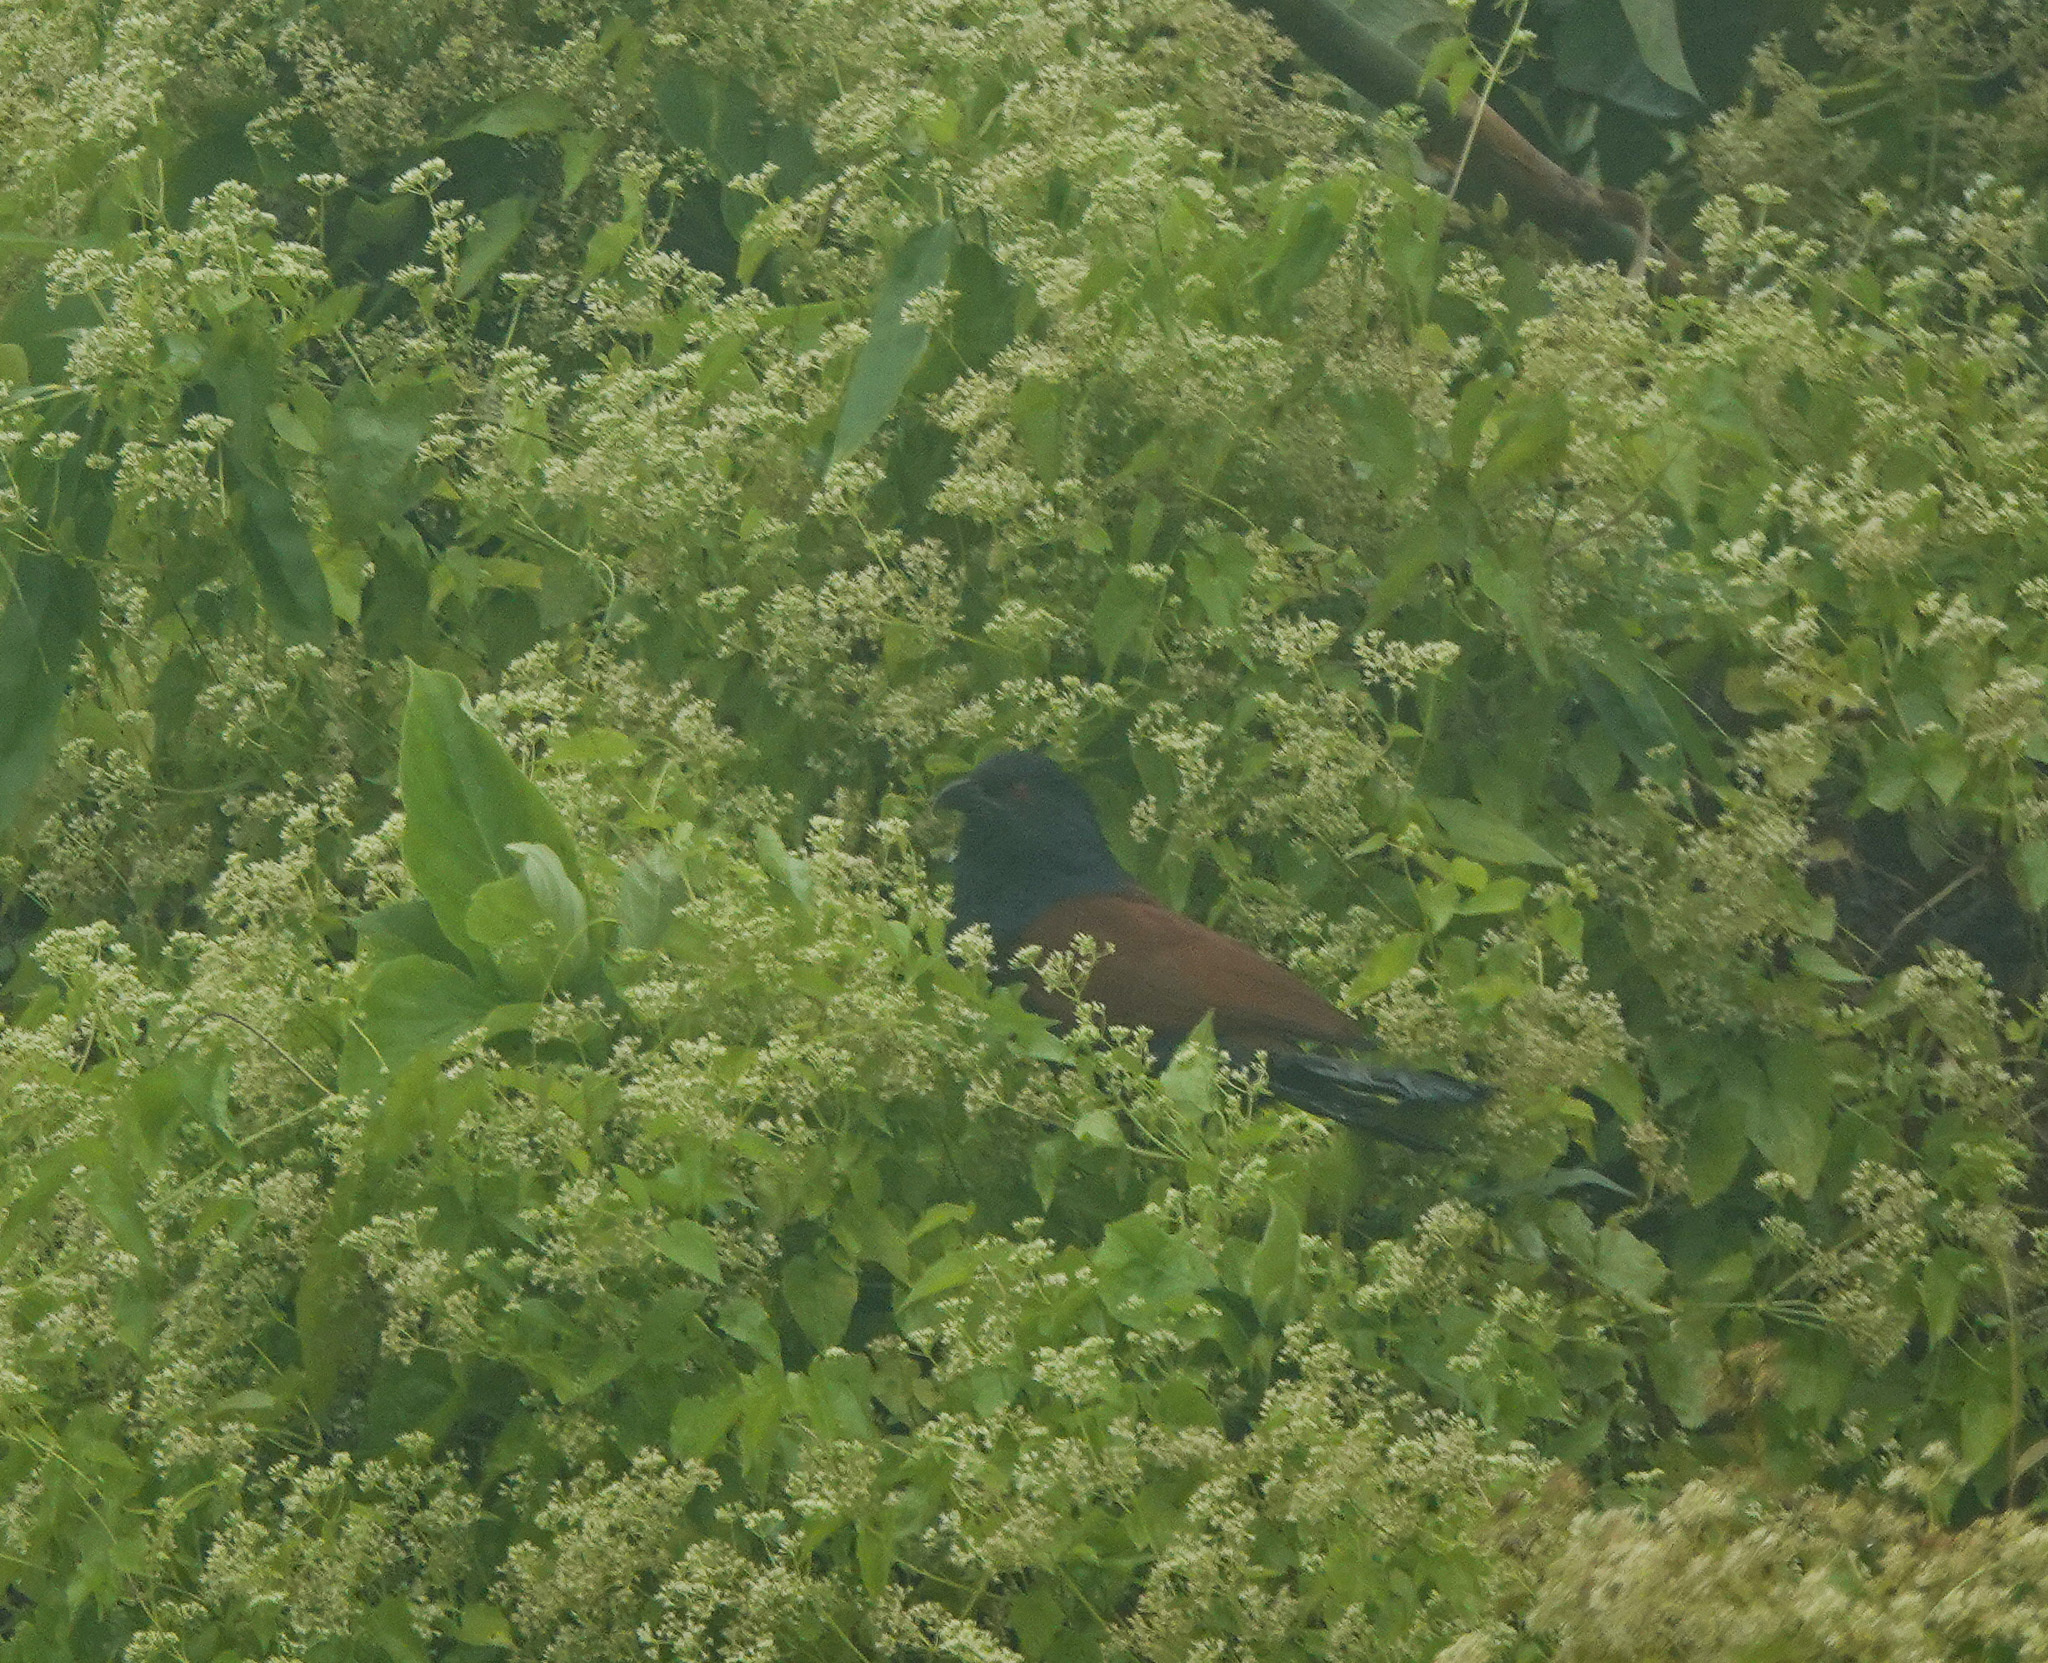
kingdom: Animalia
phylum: Chordata
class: Aves
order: Cuculiformes
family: Cuculidae
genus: Centropus
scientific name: Centropus sinensis
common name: Greater coucal
